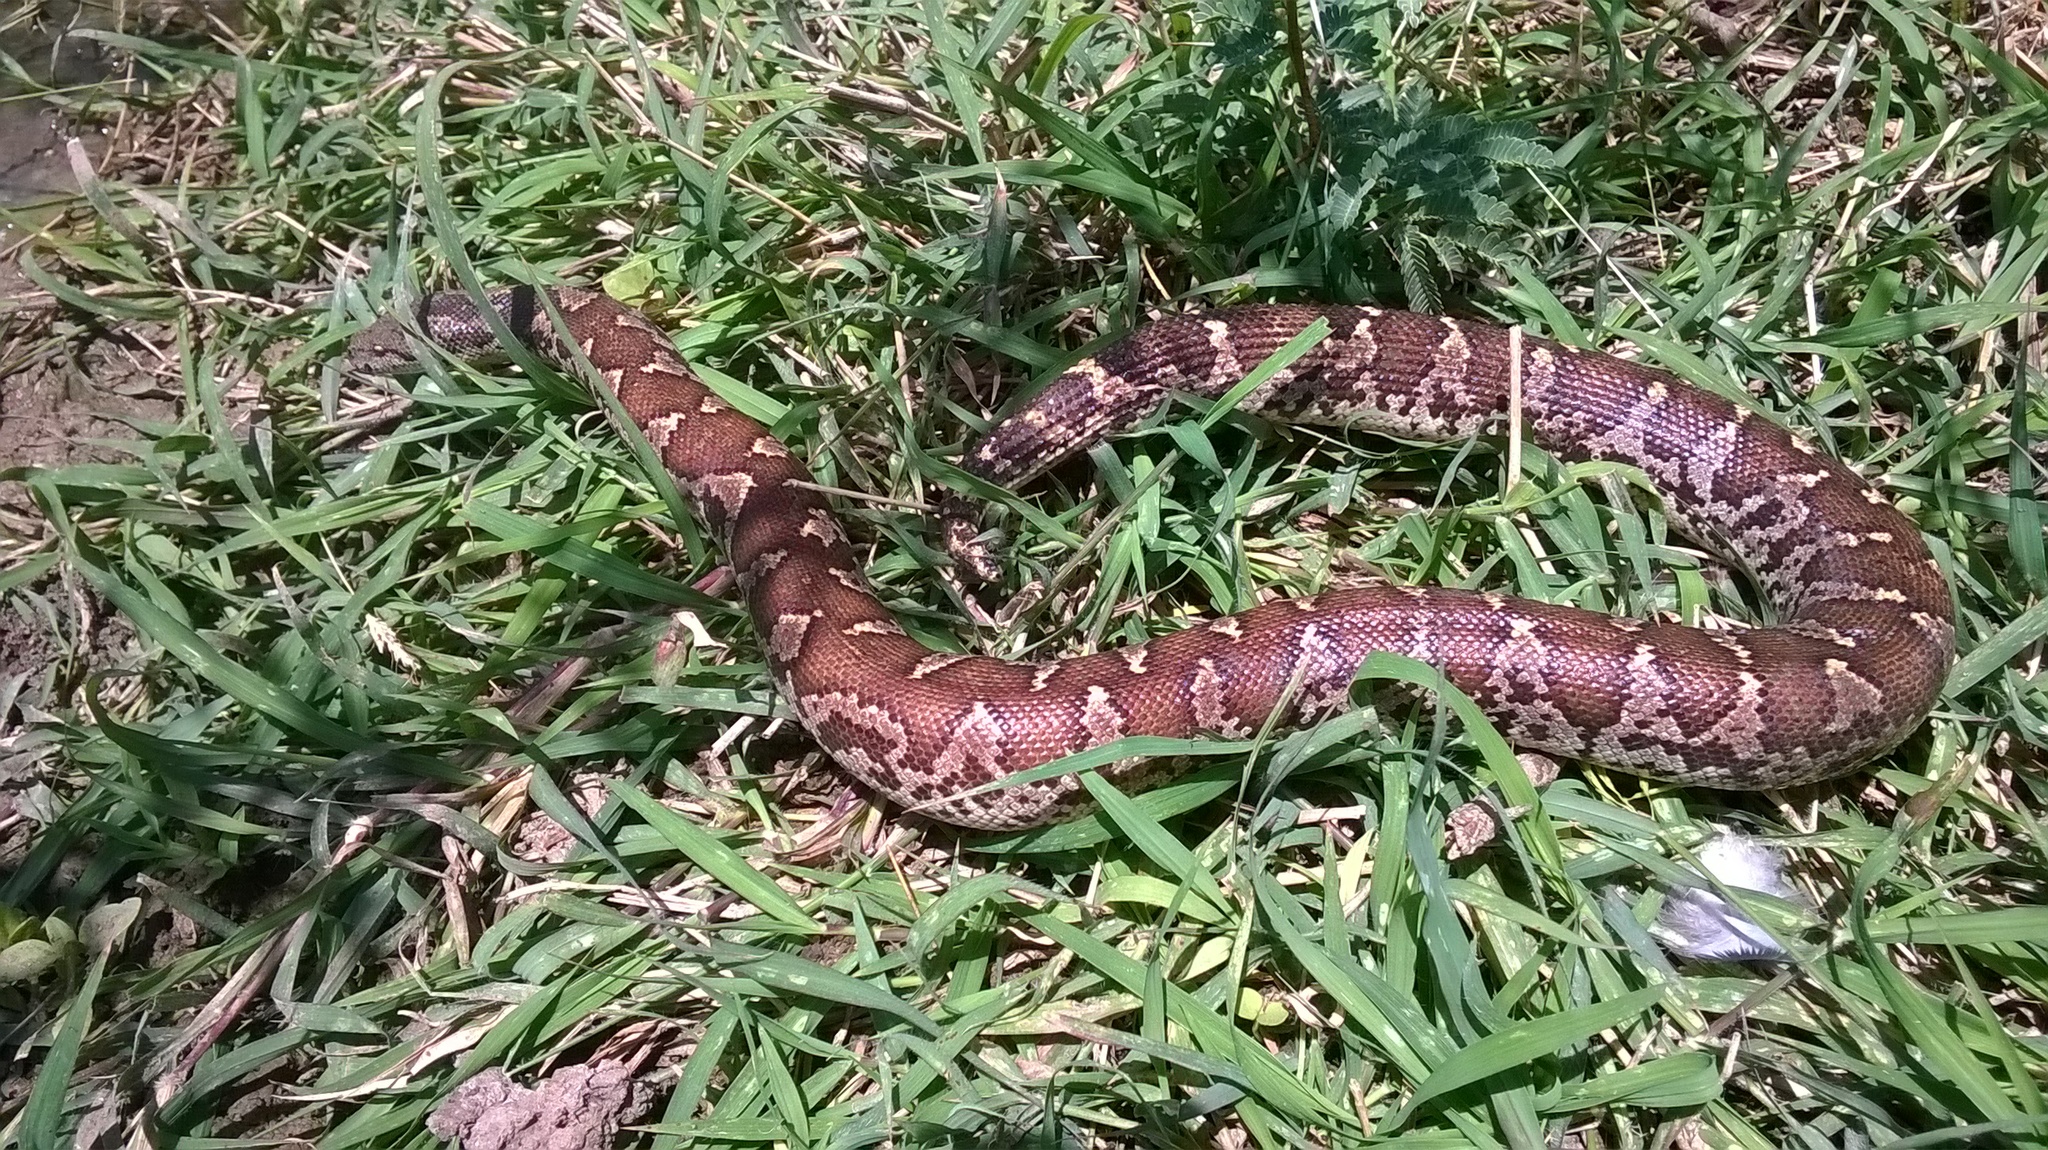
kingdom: Animalia
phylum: Chordata
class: Squamata
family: Boidae
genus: Eryx
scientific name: Eryx conicus
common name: Rough-tailed sand boa
